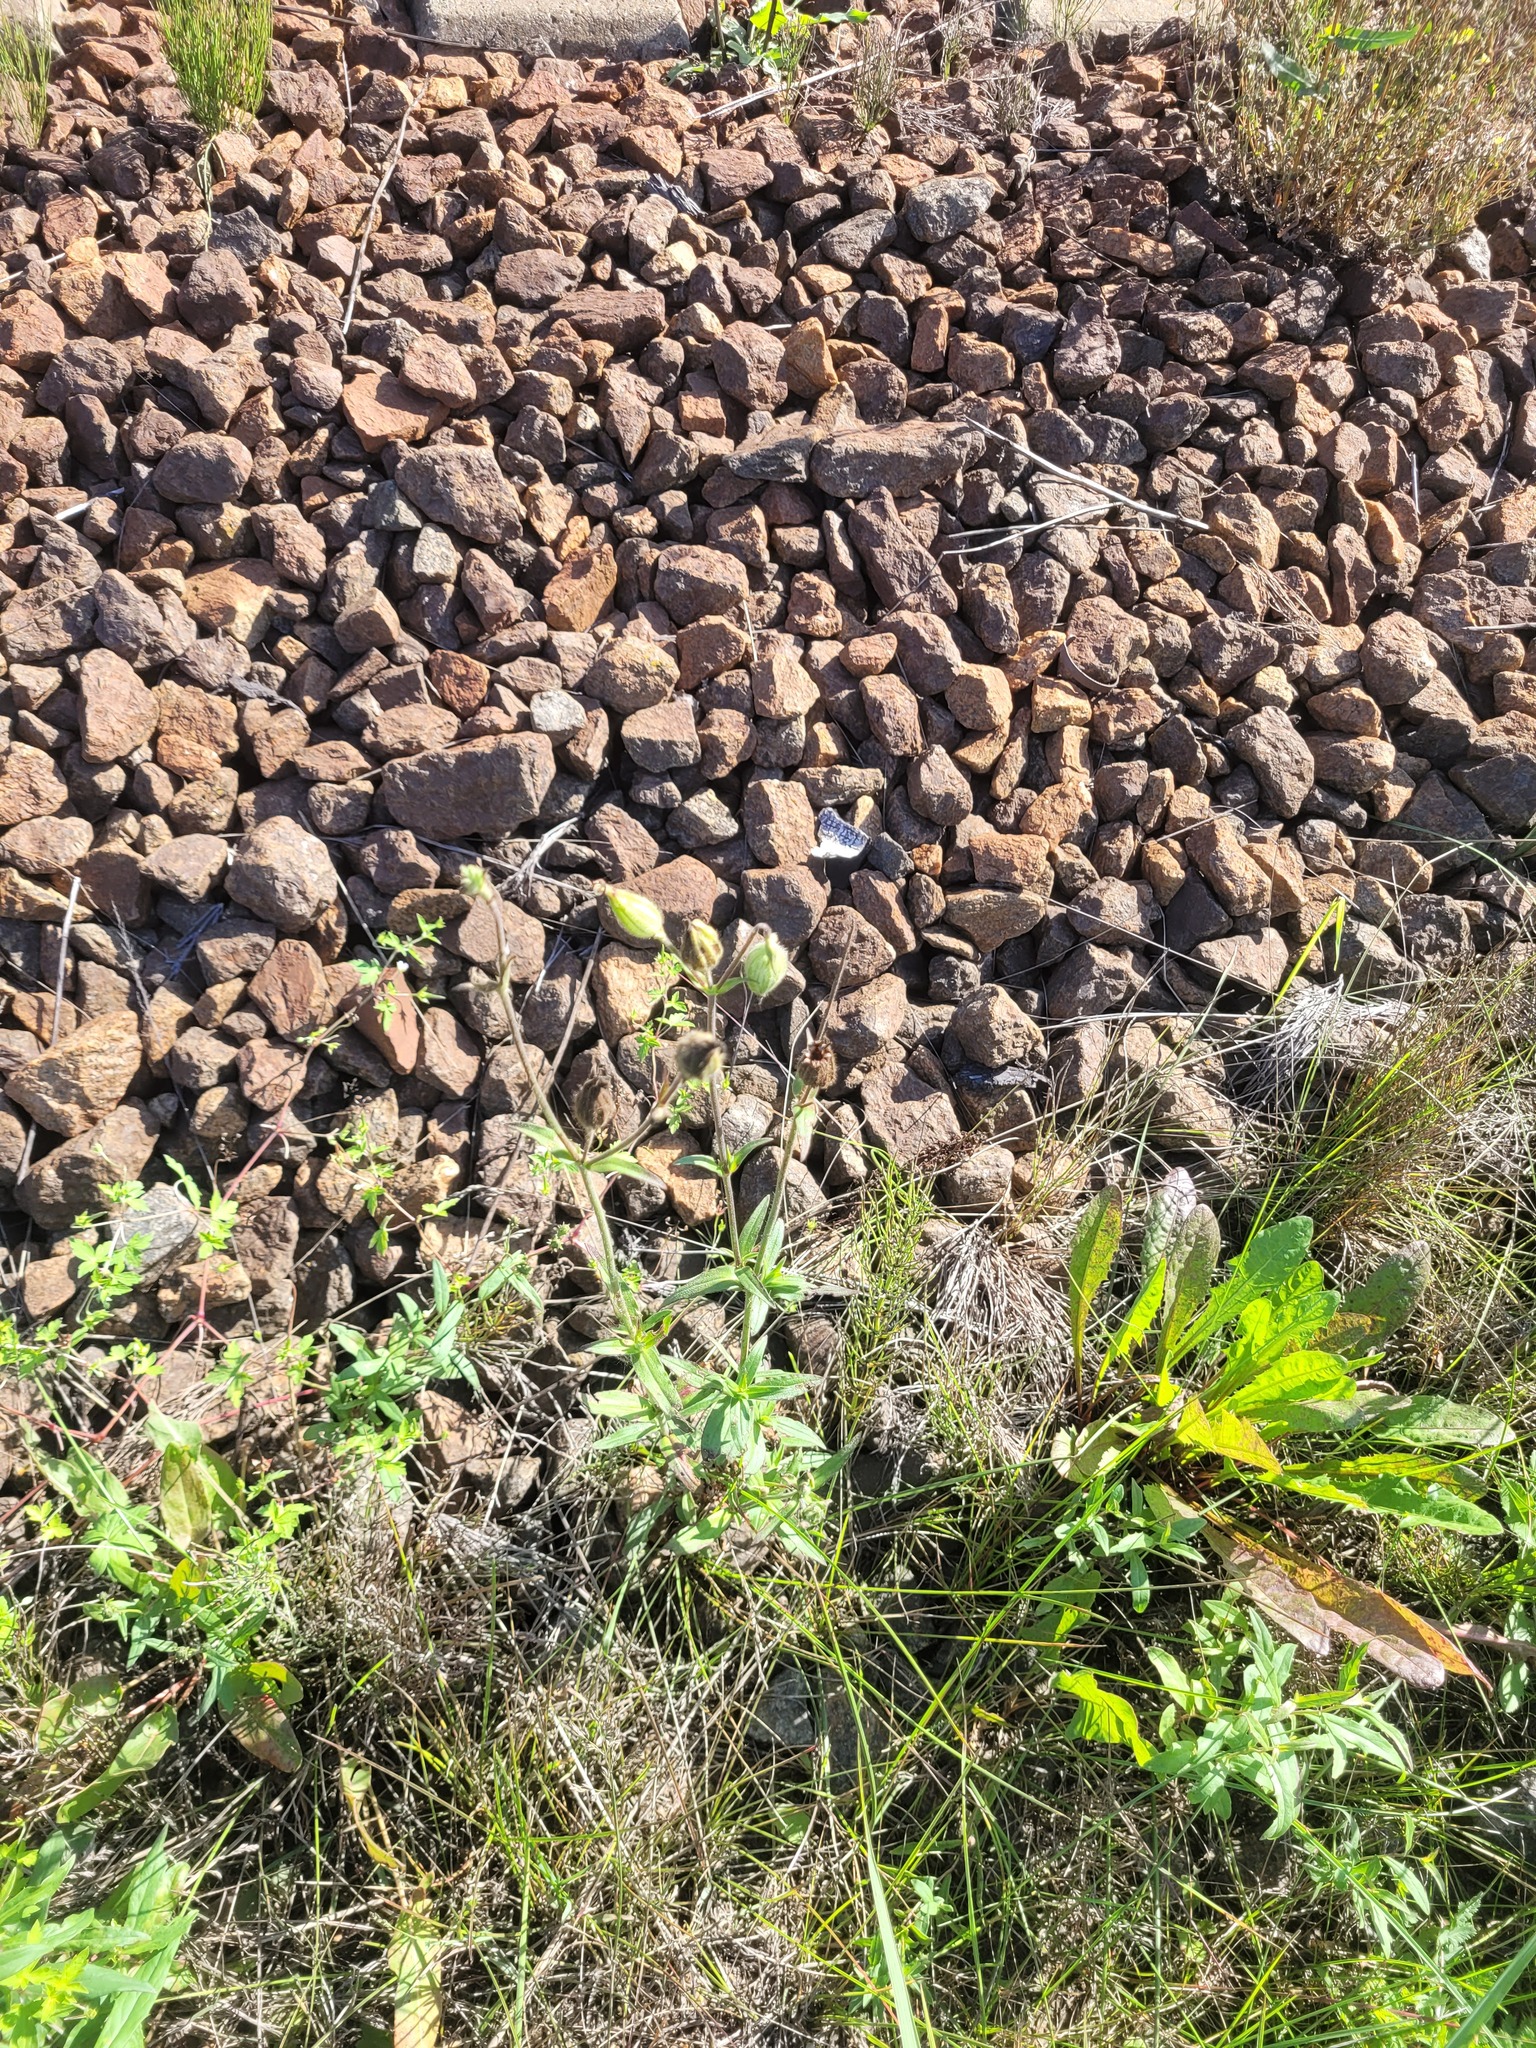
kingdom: Plantae
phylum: Tracheophyta
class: Magnoliopsida
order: Caryophyllales
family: Caryophyllaceae
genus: Silene
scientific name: Silene latifolia
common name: White campion
